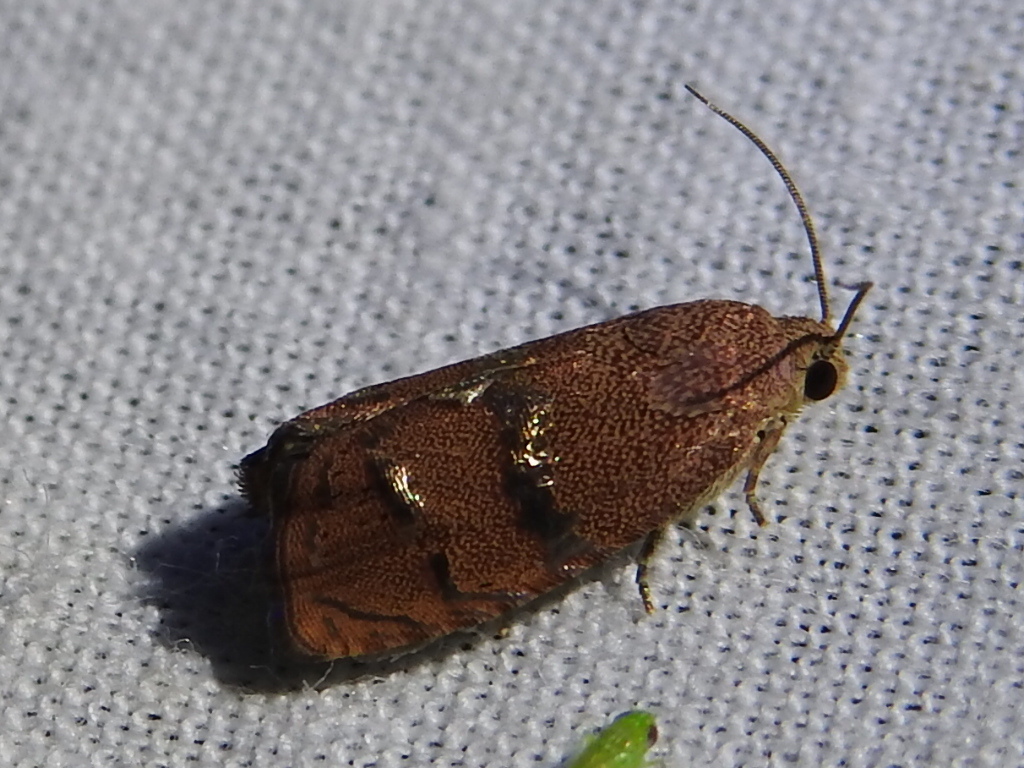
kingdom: Animalia
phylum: Arthropoda
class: Insecta
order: Lepidoptera
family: Tortricidae
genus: Cydia
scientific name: Cydia latiferreana
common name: Filbertworm moth
